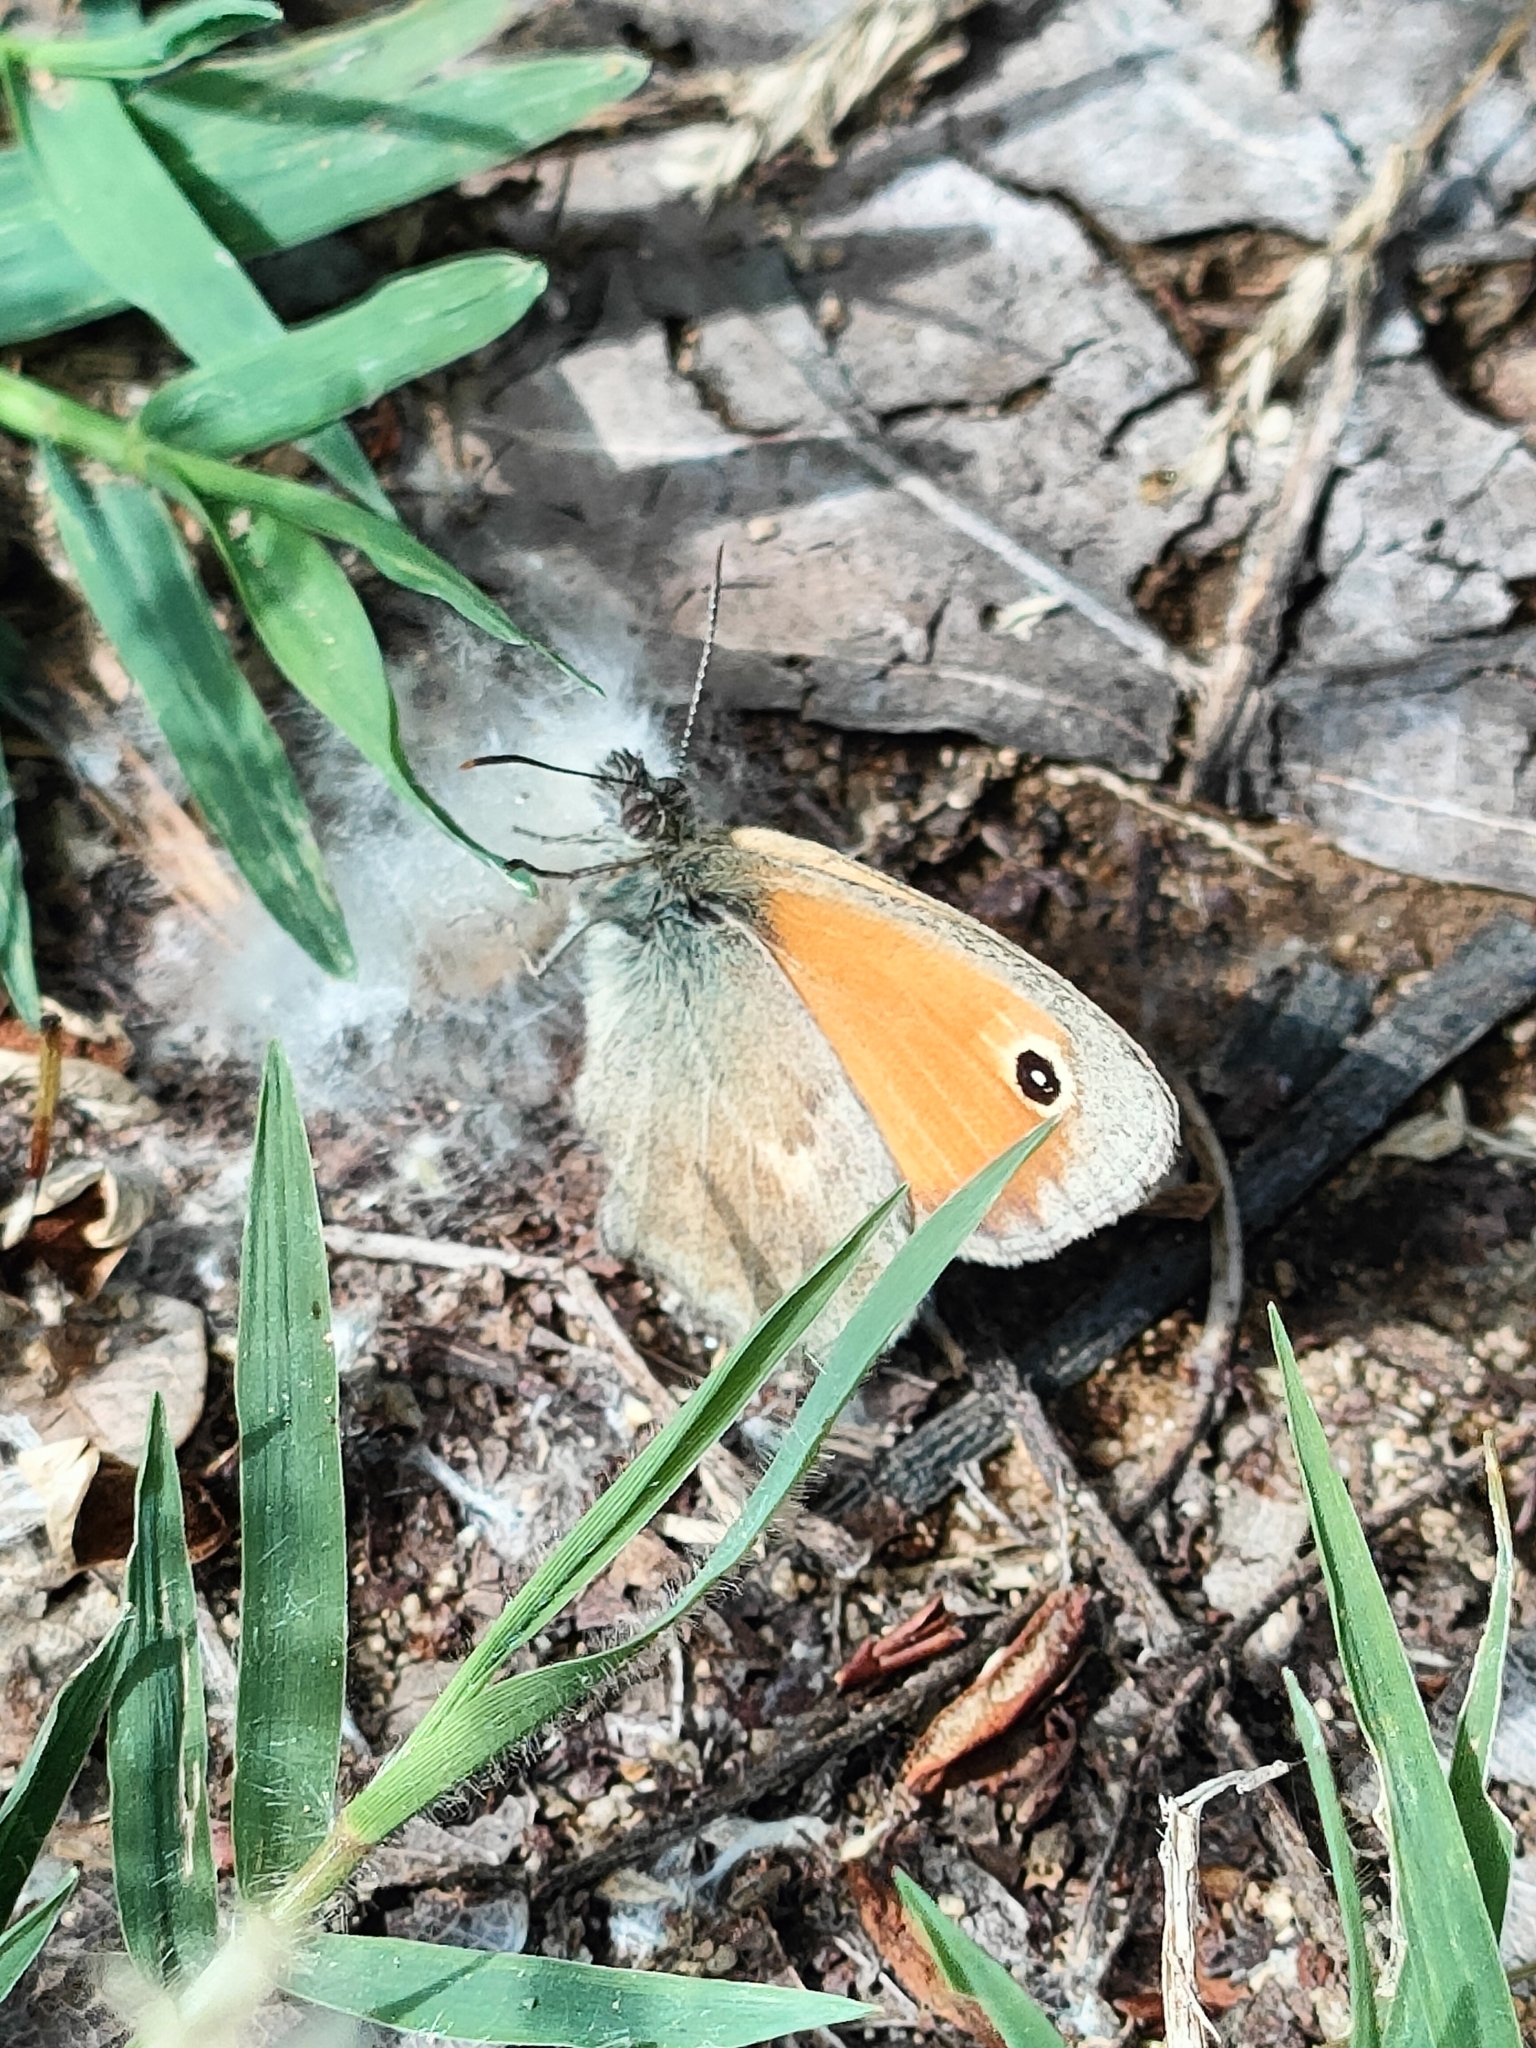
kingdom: Animalia
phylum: Arthropoda
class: Insecta
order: Lepidoptera
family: Nymphalidae
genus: Coenonympha
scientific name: Coenonympha pamphilus
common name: Small heath
